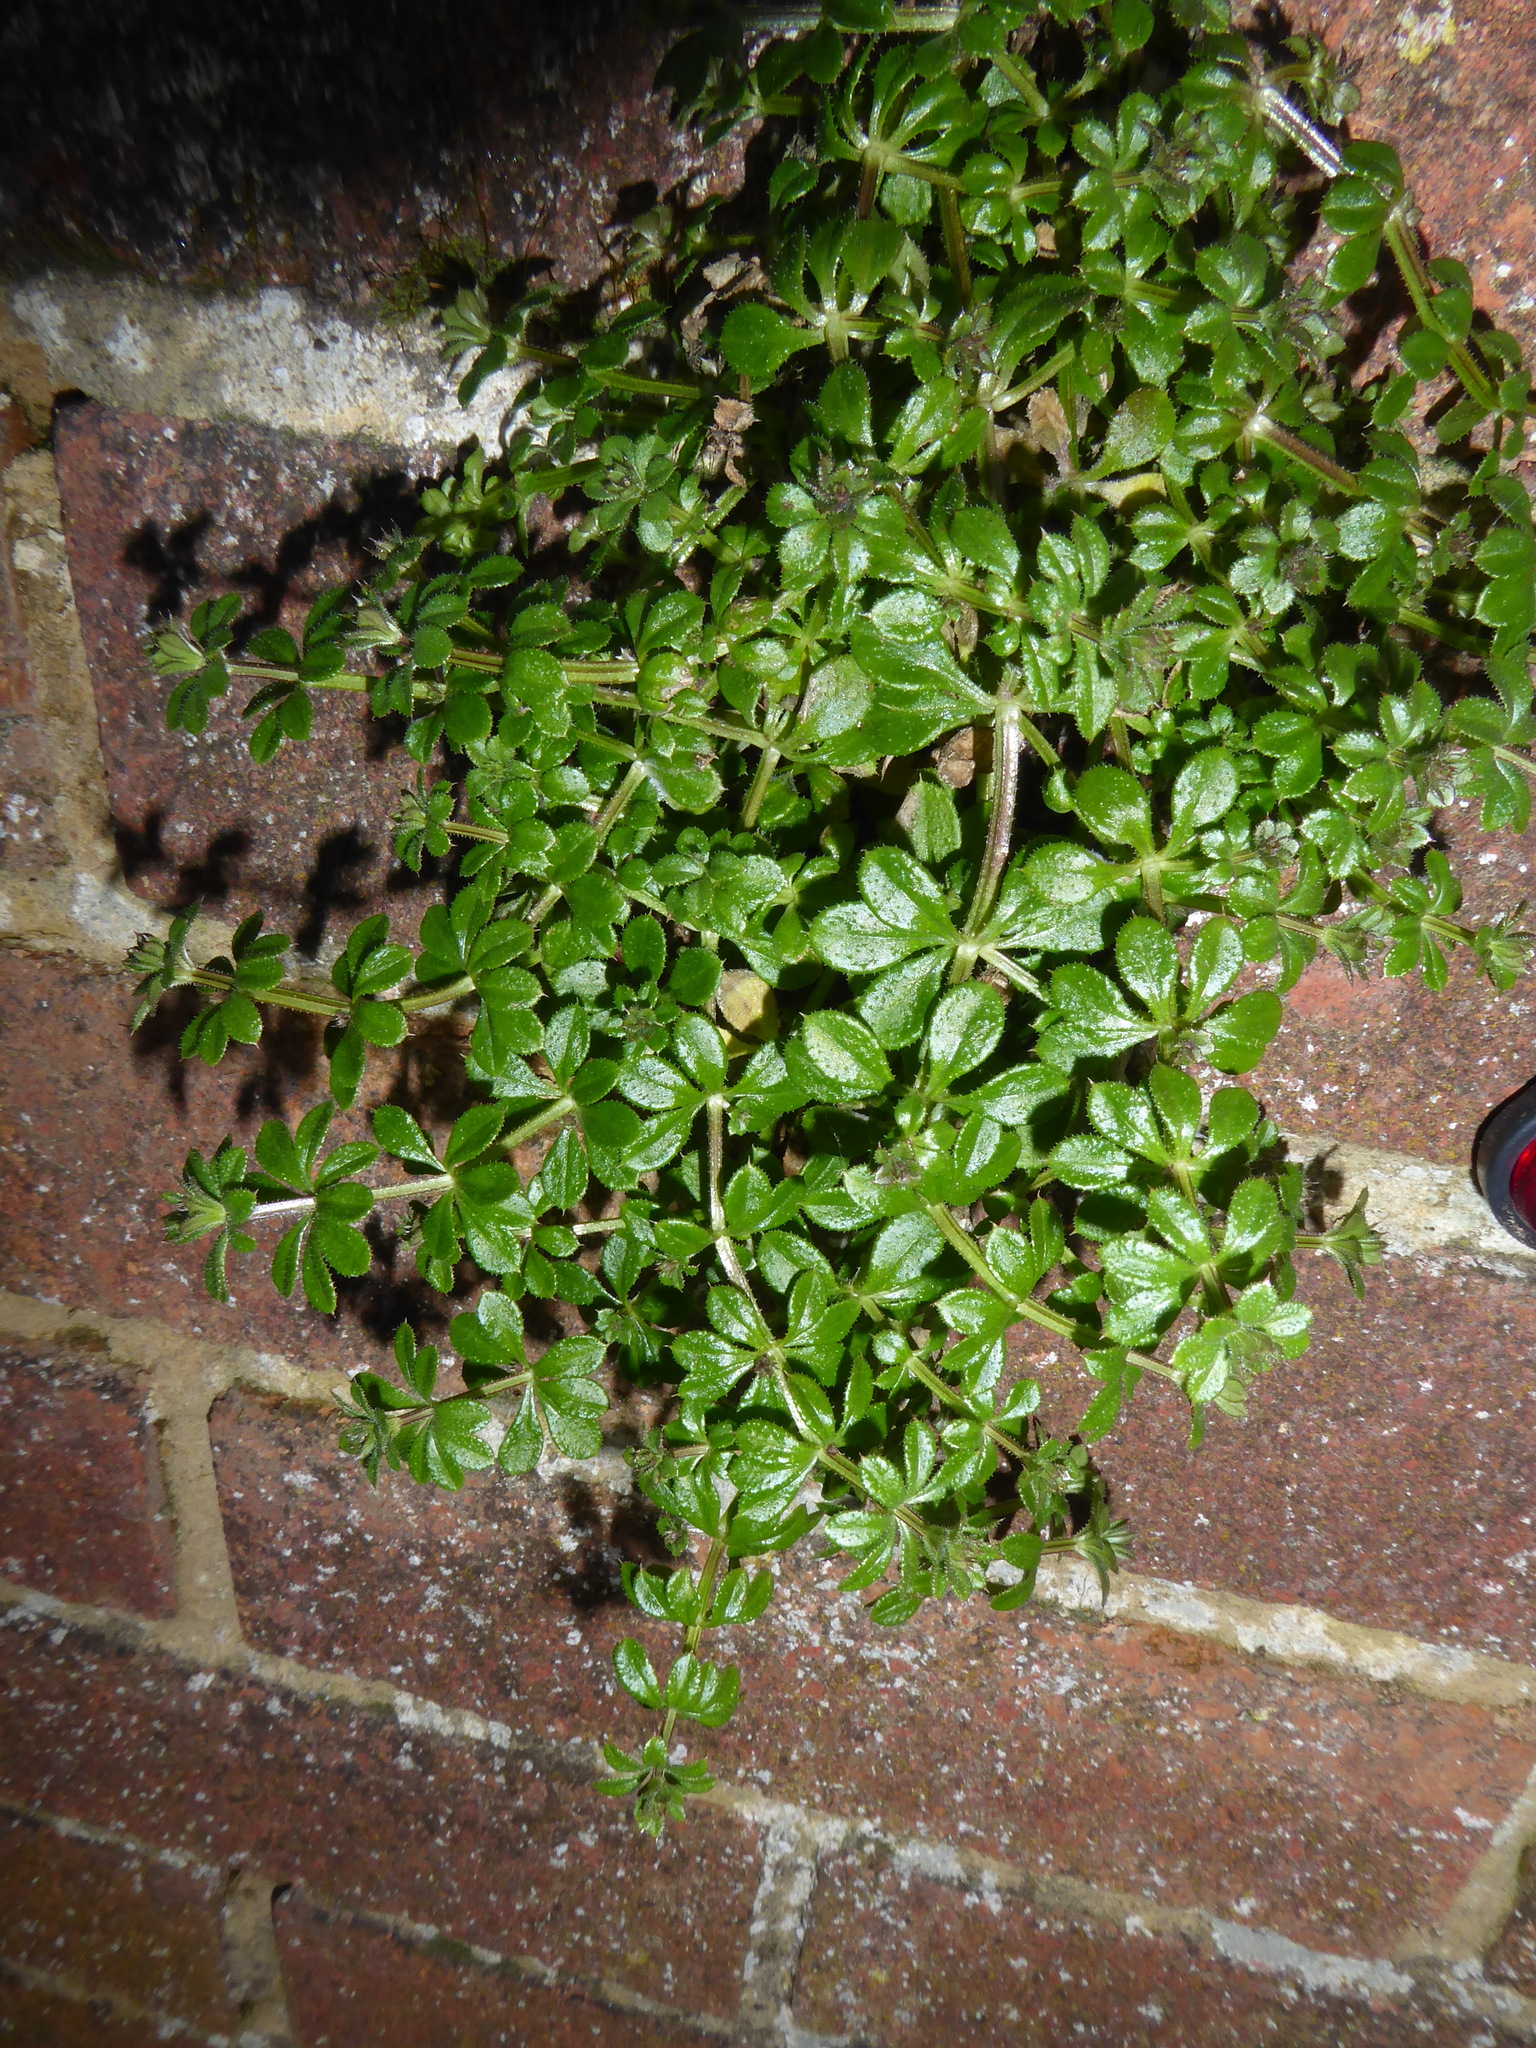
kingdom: Plantae
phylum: Tracheophyta
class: Magnoliopsida
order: Gentianales
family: Rubiaceae
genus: Galium
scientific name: Galium aparine
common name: Cleavers
